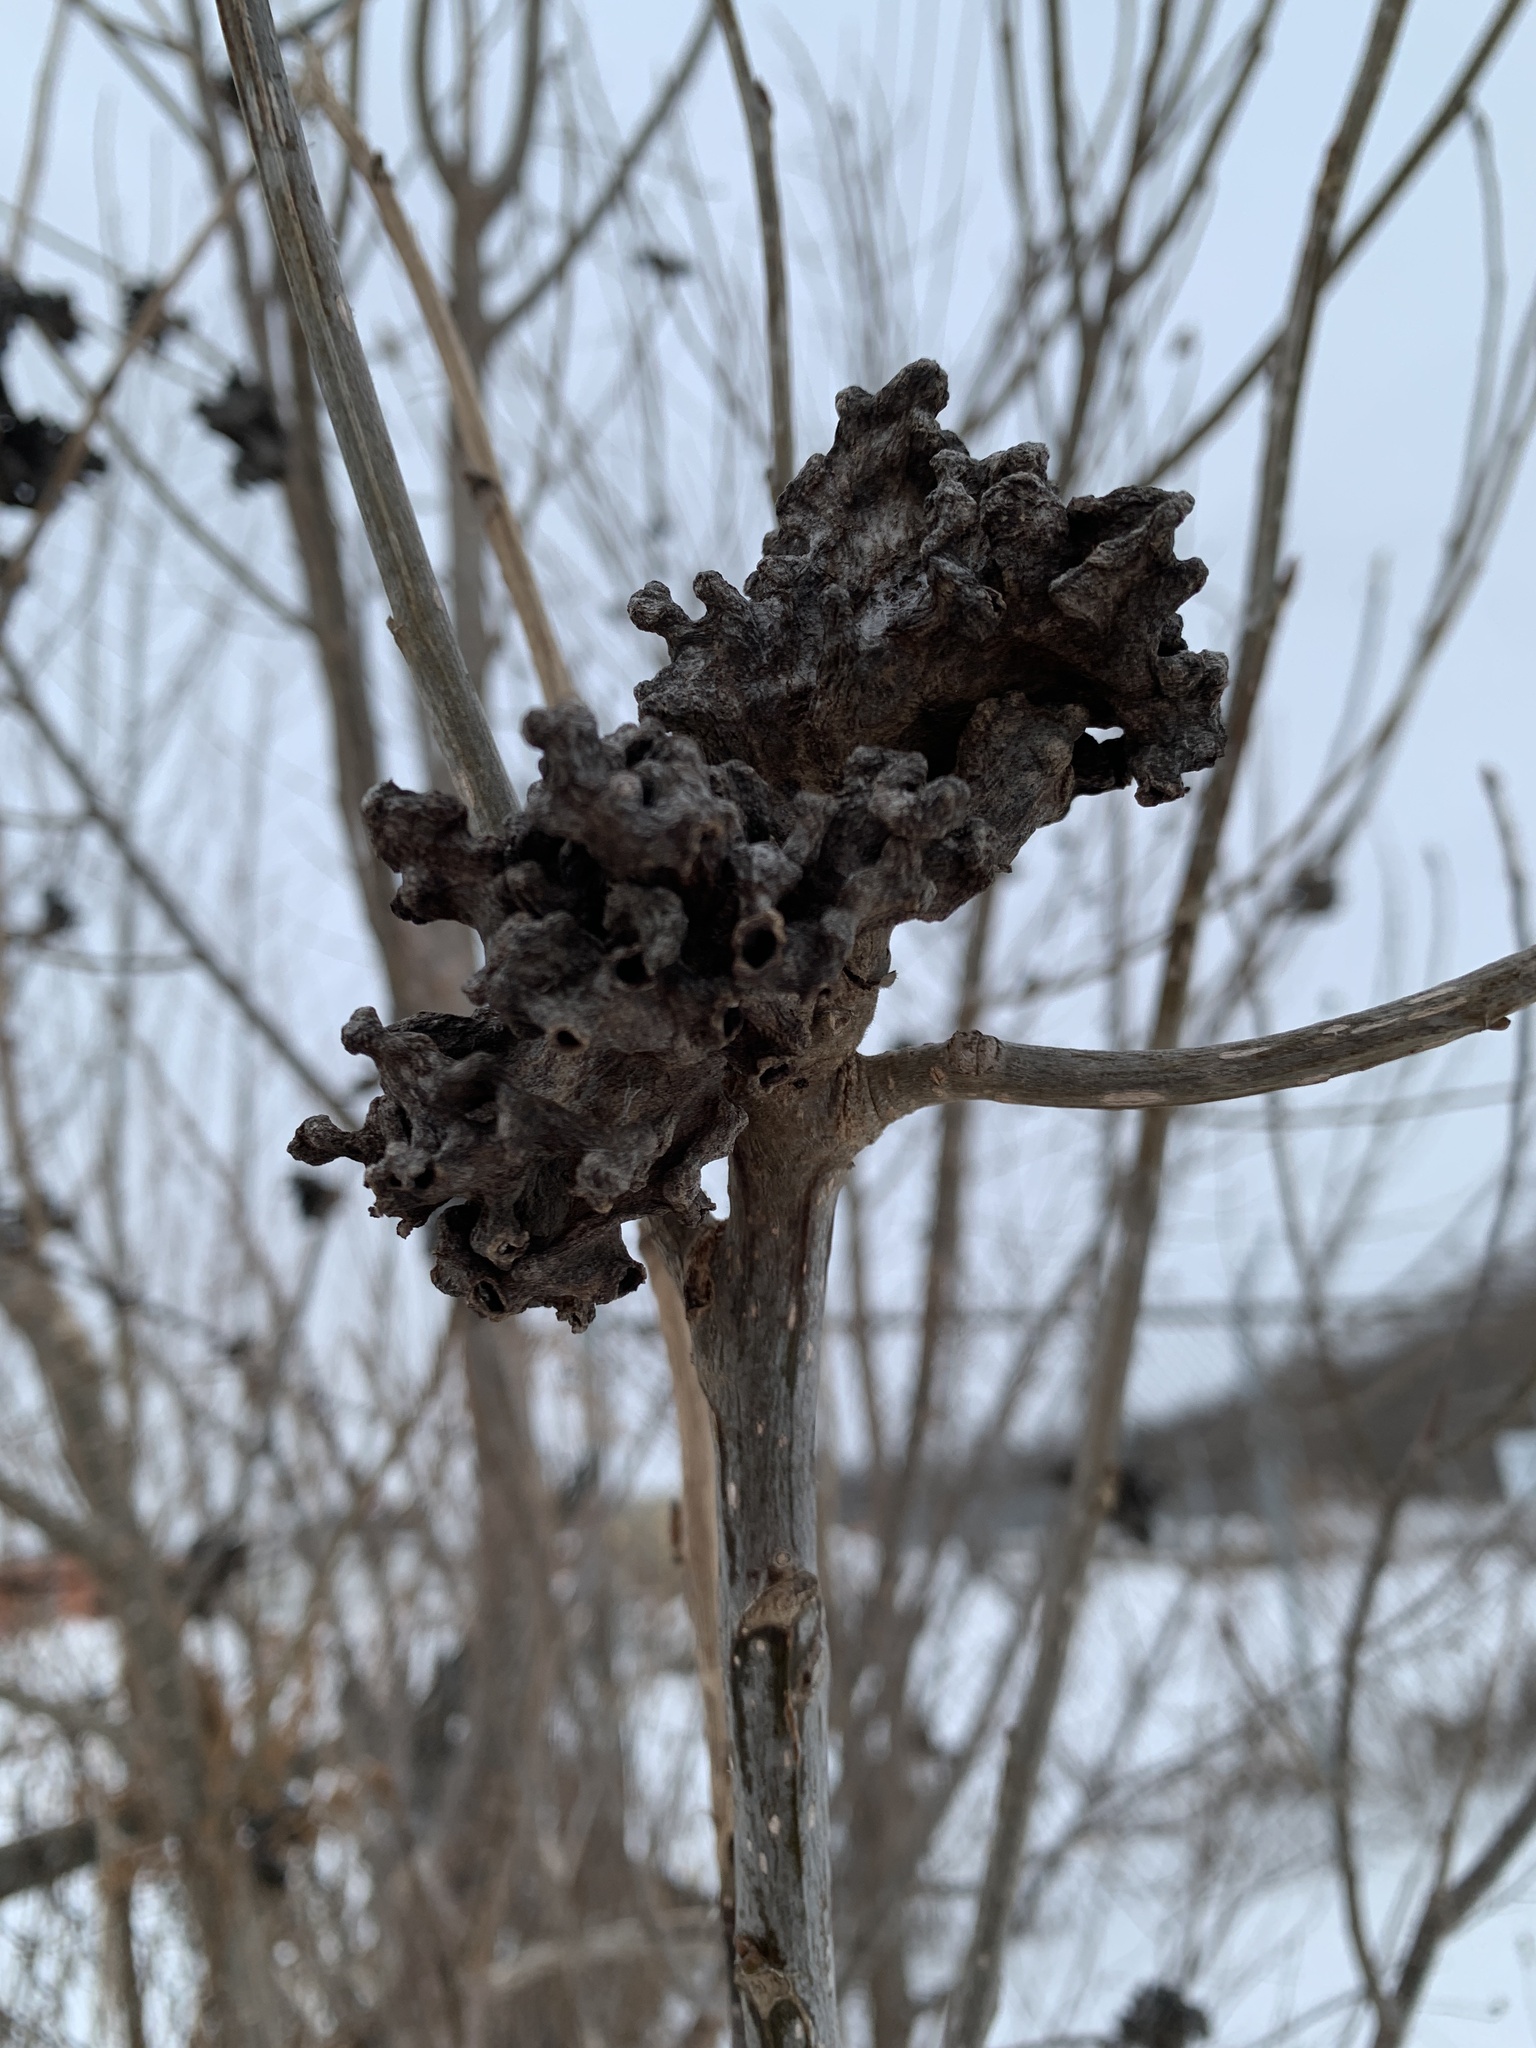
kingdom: Animalia
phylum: Arthropoda
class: Insecta
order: Hemiptera
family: Aphididae
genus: Mordwilkoja
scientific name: Mordwilkoja vagabunda
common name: Poplar vagabond aphid
